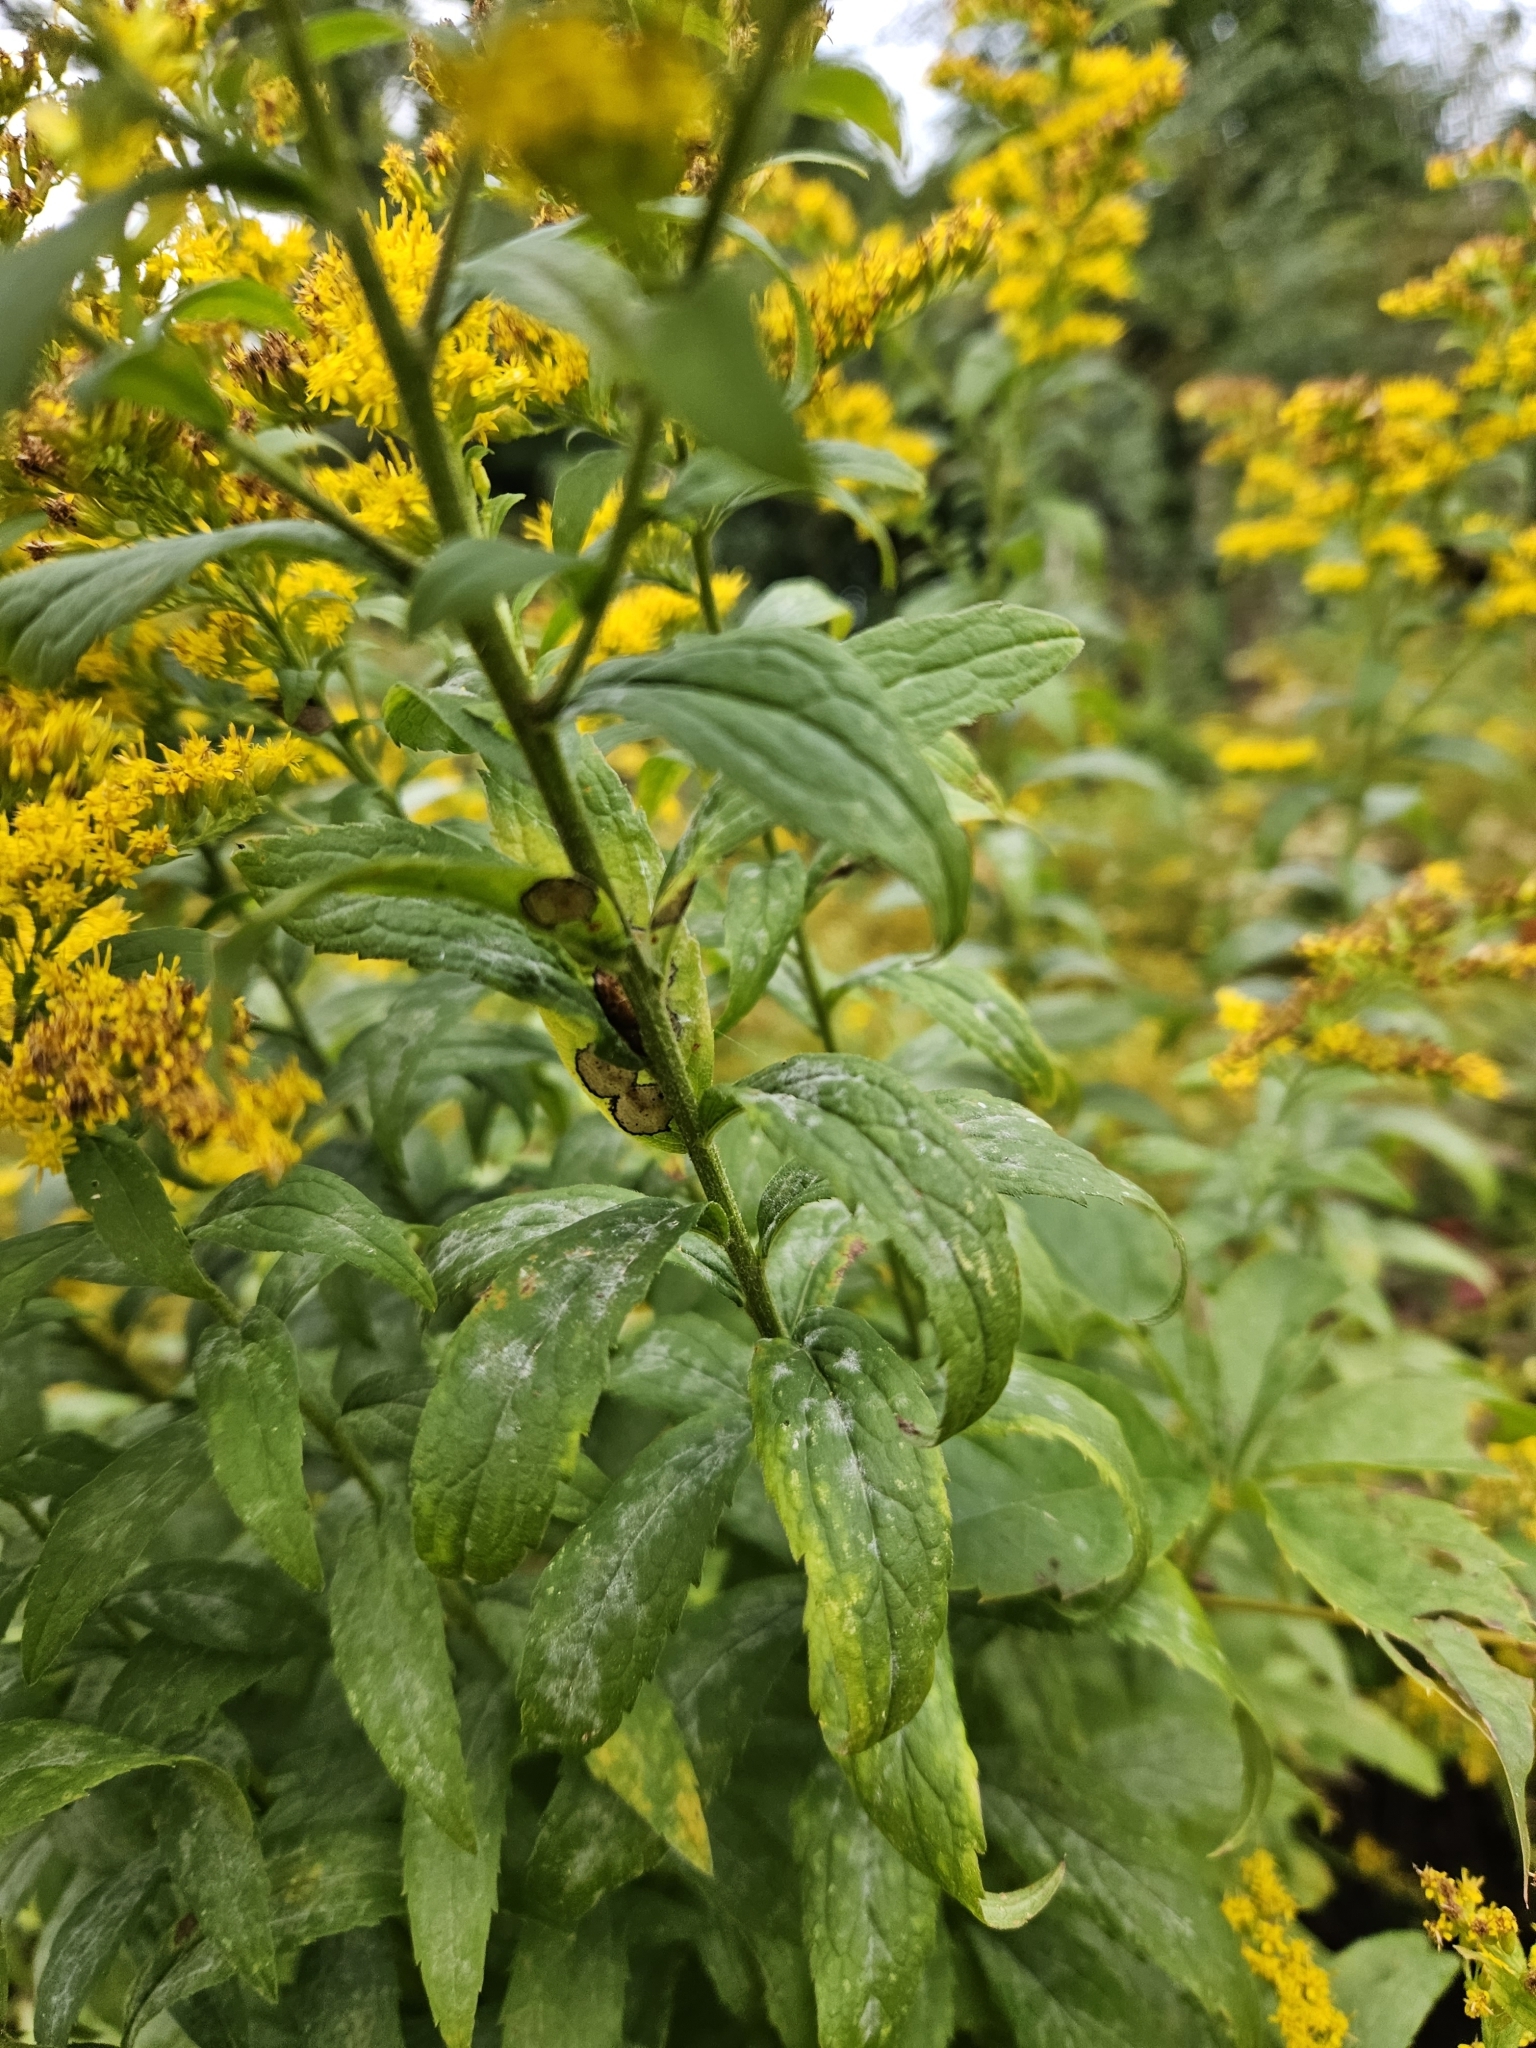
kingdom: Plantae
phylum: Tracheophyta
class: Magnoliopsida
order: Asterales
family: Asteraceae
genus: Solidago
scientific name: Solidago rugosa
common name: Rough-stemmed goldenrod
